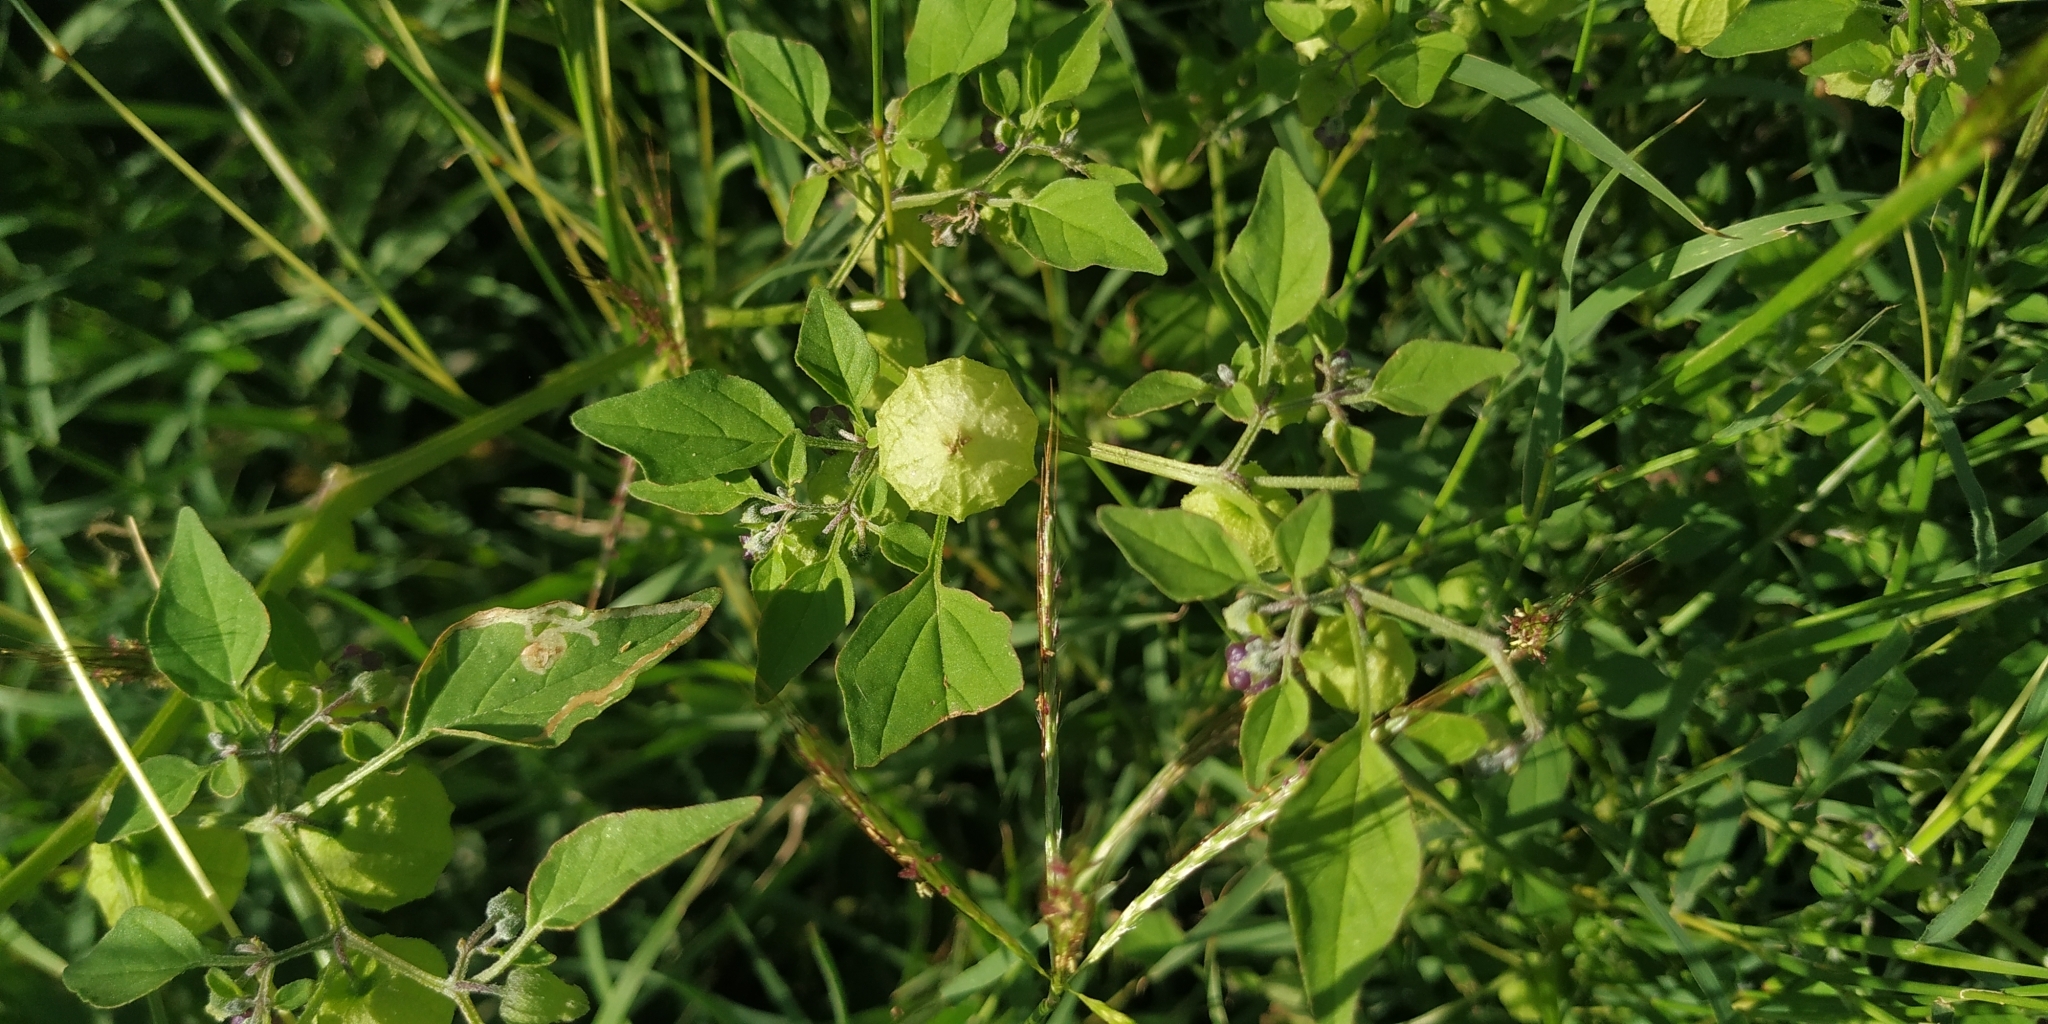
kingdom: Plantae
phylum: Tracheophyta
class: Magnoliopsida
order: Solanales
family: Solanaceae
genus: Physalis
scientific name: Physalis solanacea
